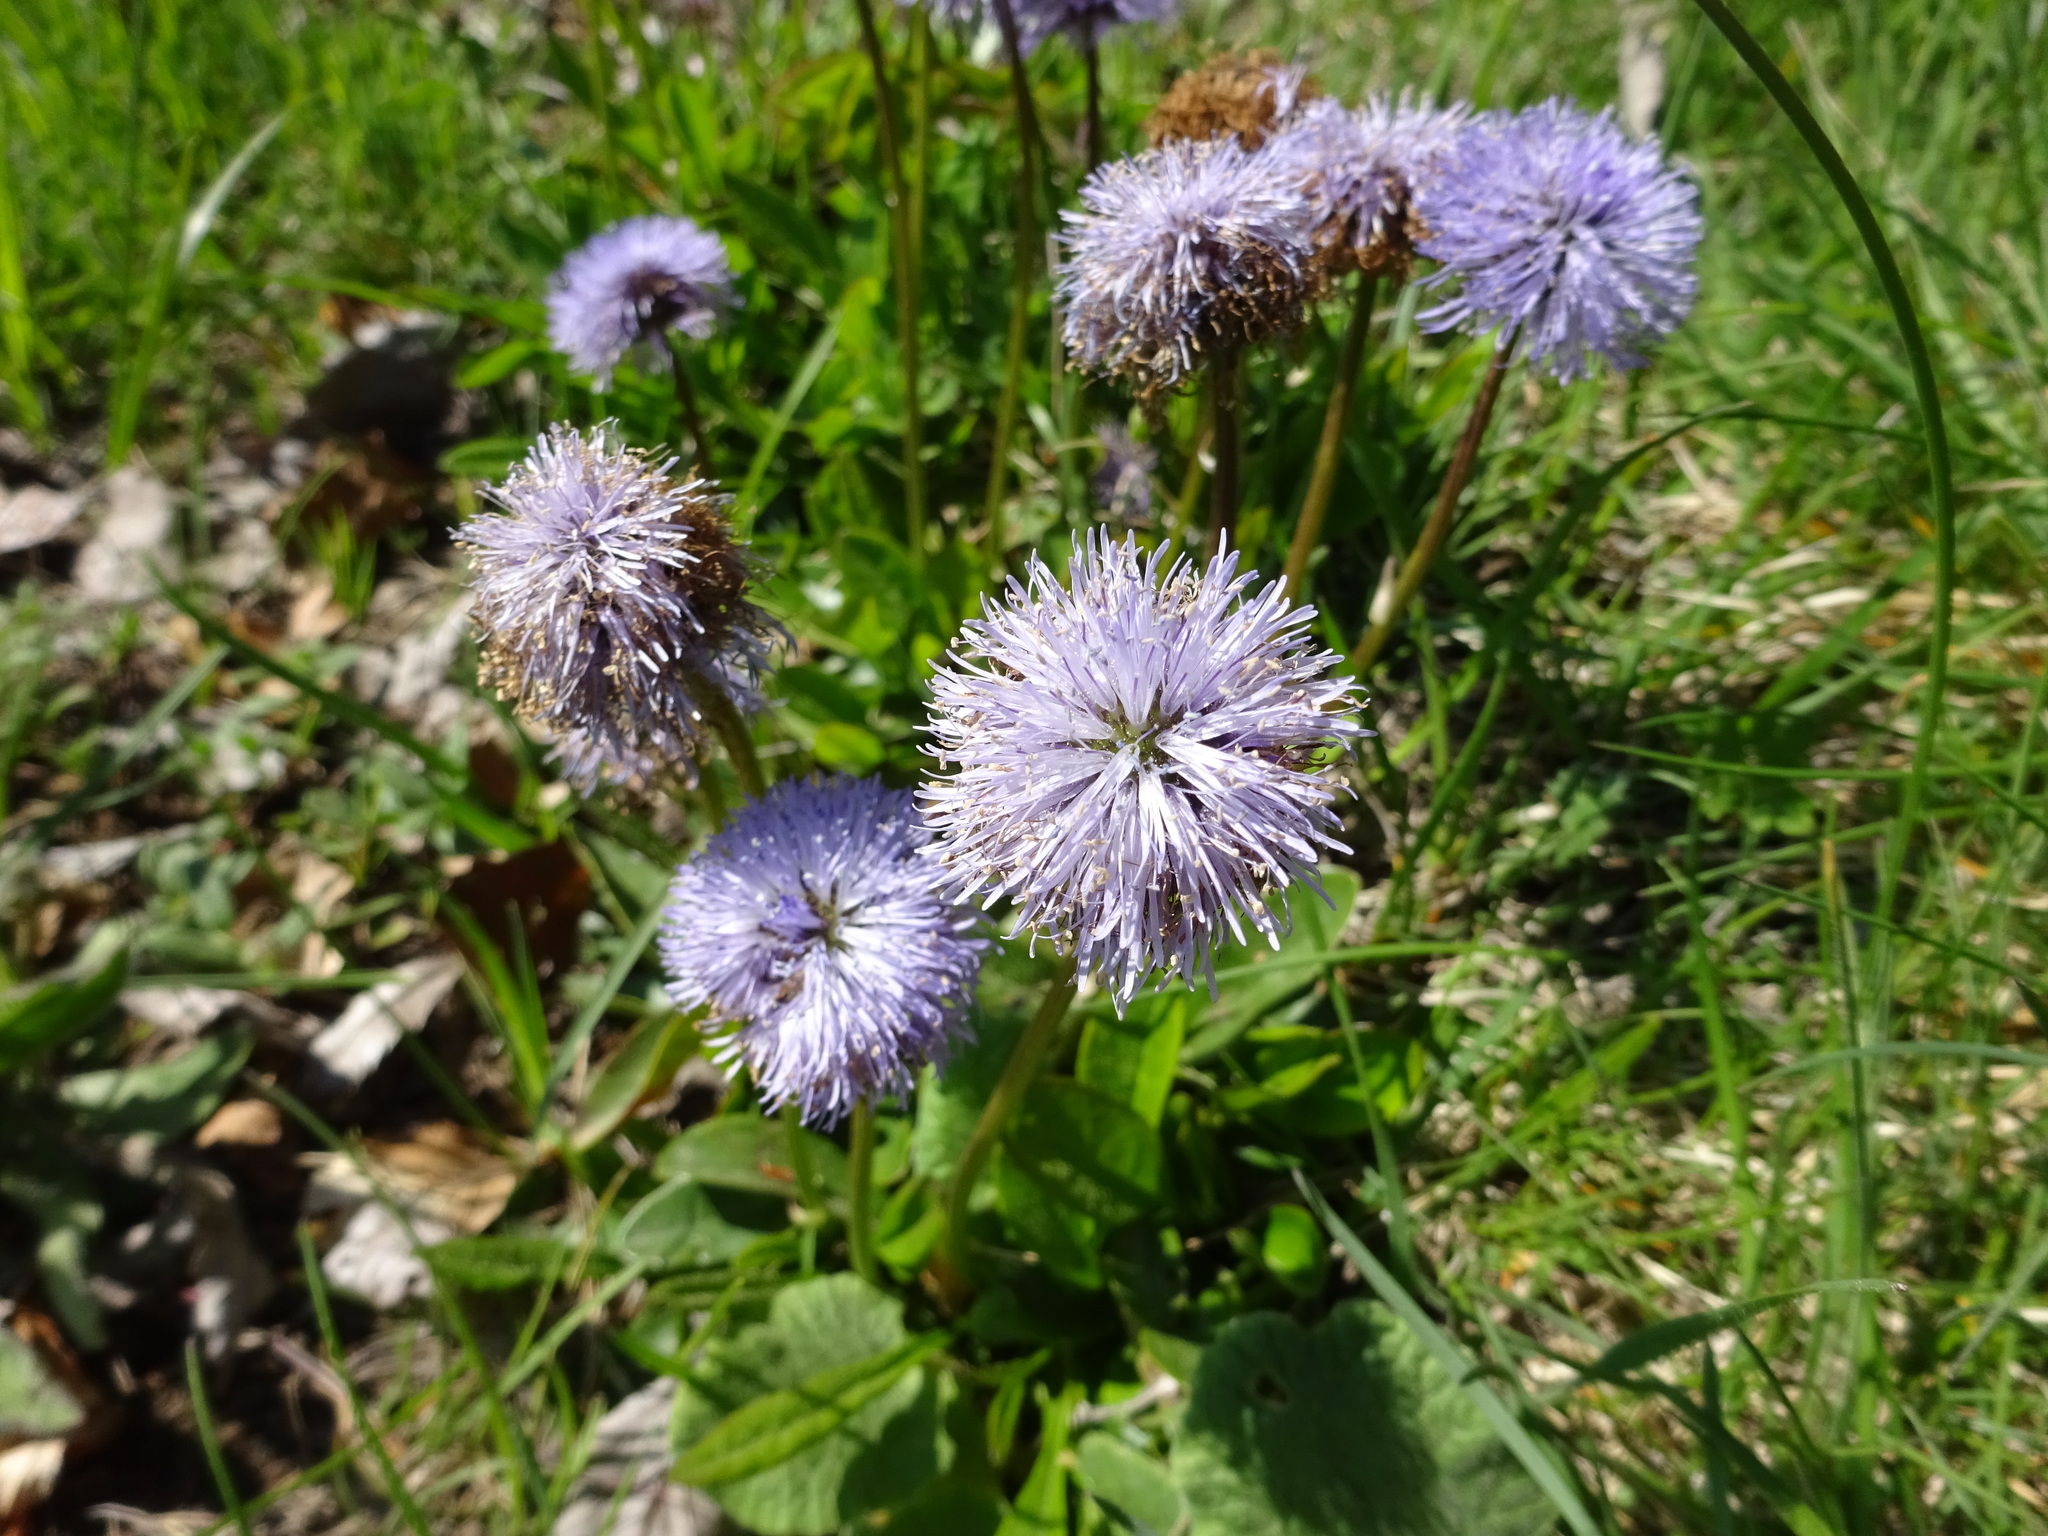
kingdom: Plantae
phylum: Tracheophyta
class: Magnoliopsida
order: Lamiales
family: Plantaginaceae
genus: Globularia
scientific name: Globularia nudicaulis
